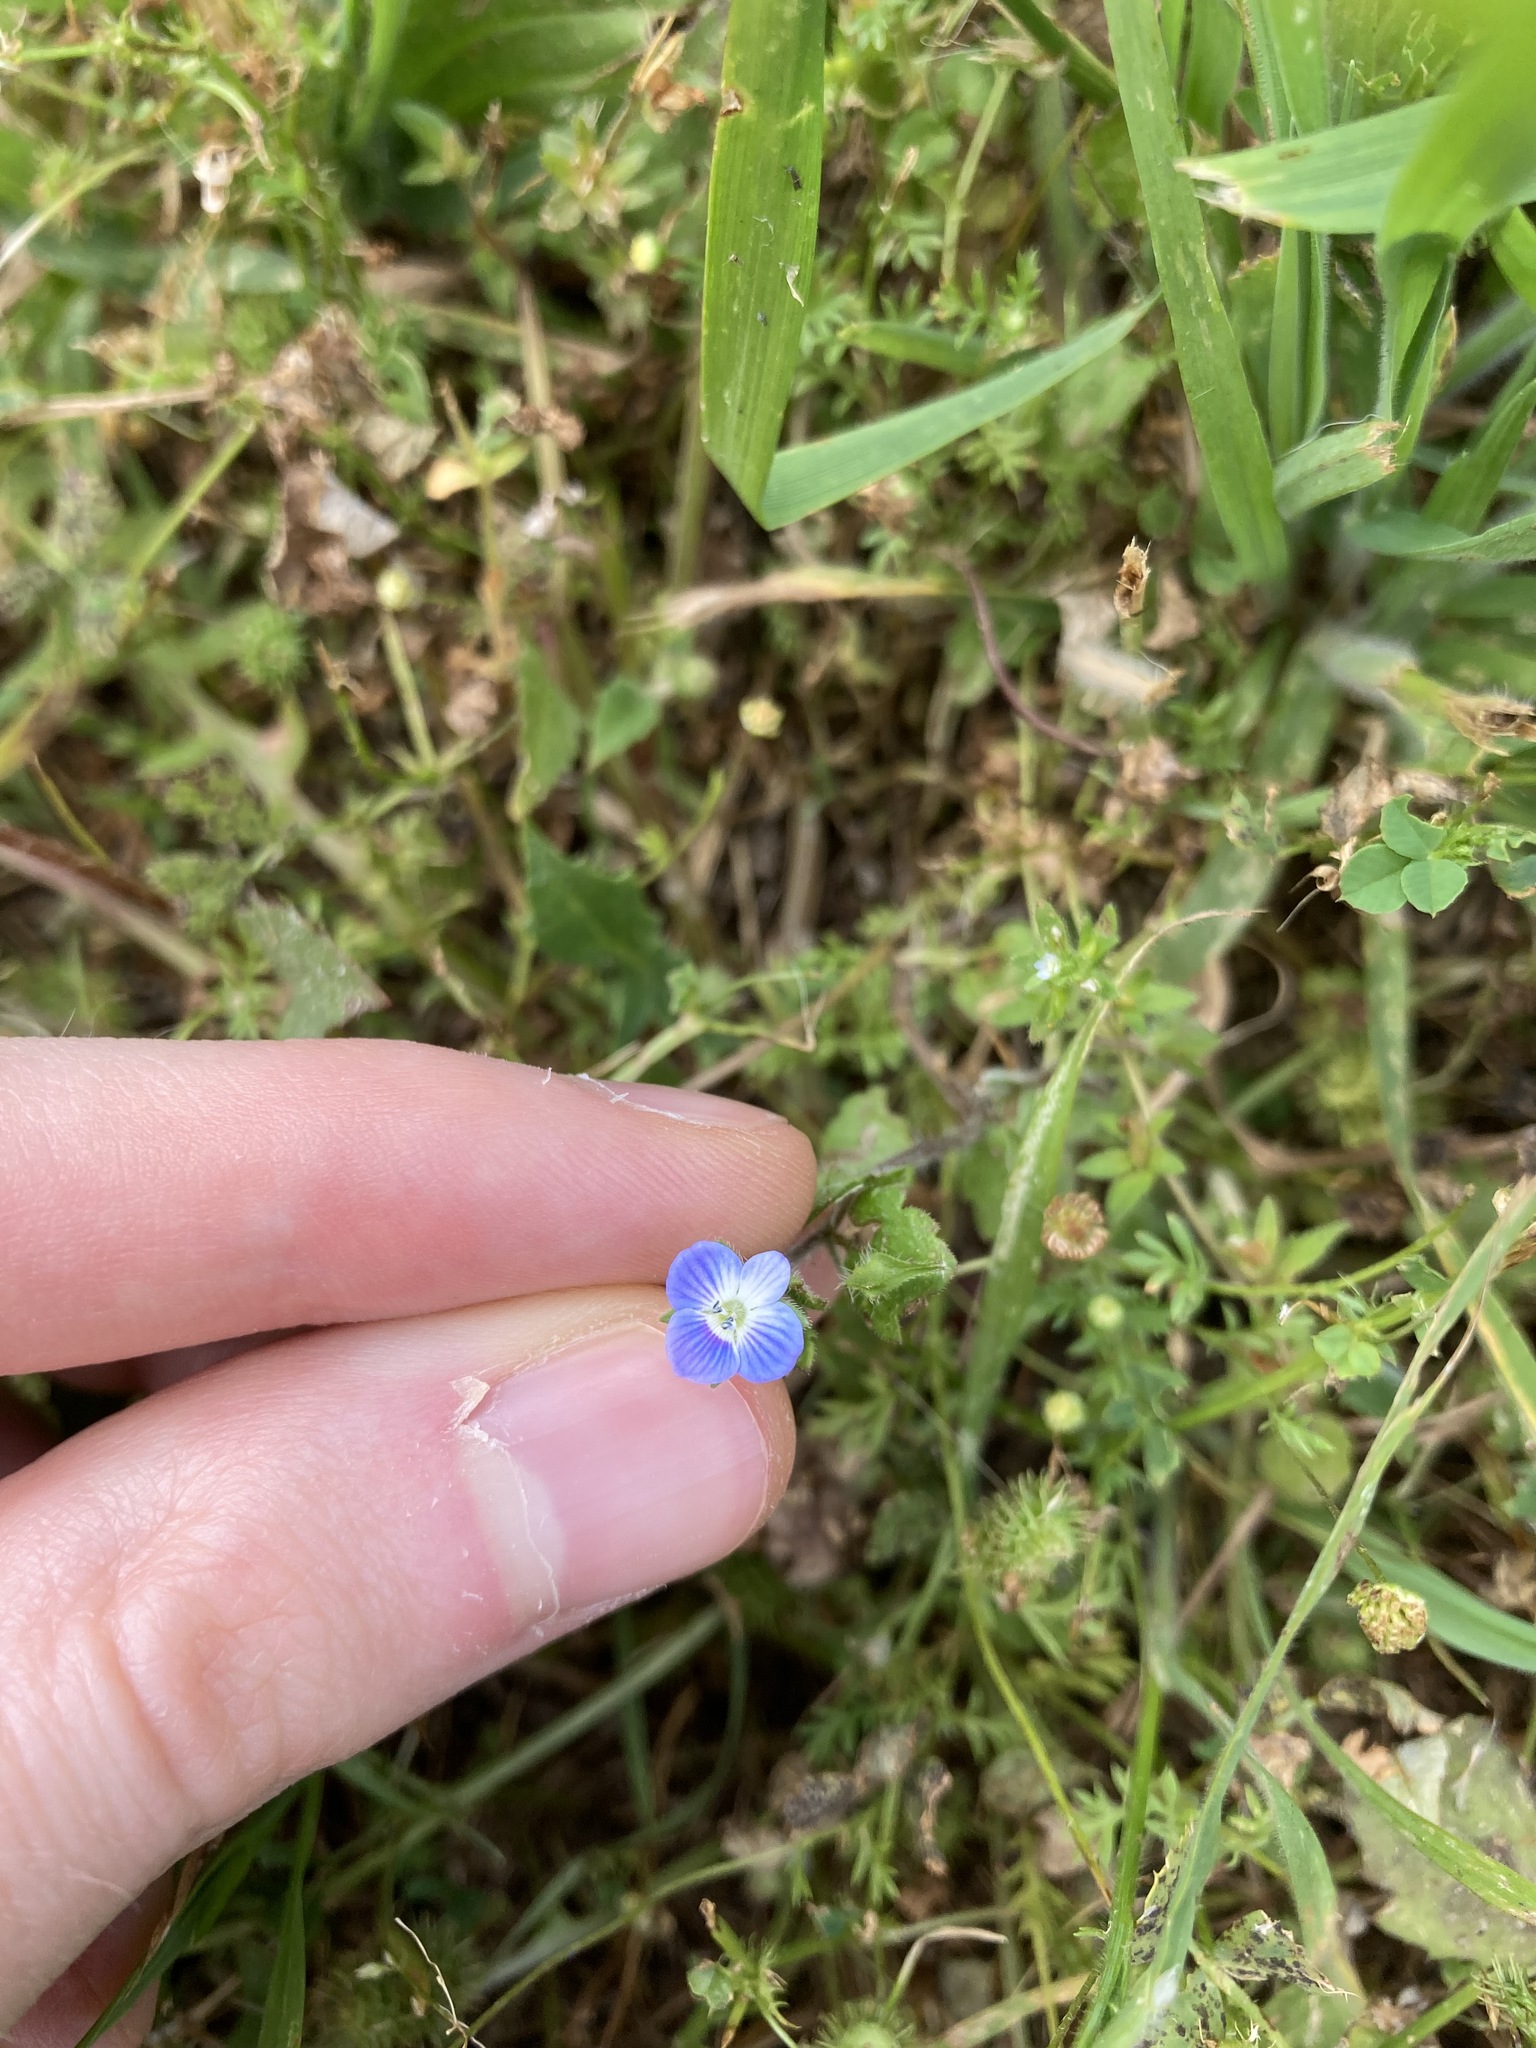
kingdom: Plantae
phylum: Tracheophyta
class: Magnoliopsida
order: Lamiales
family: Plantaginaceae
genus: Veronica
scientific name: Veronica persica
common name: Common field-speedwell
